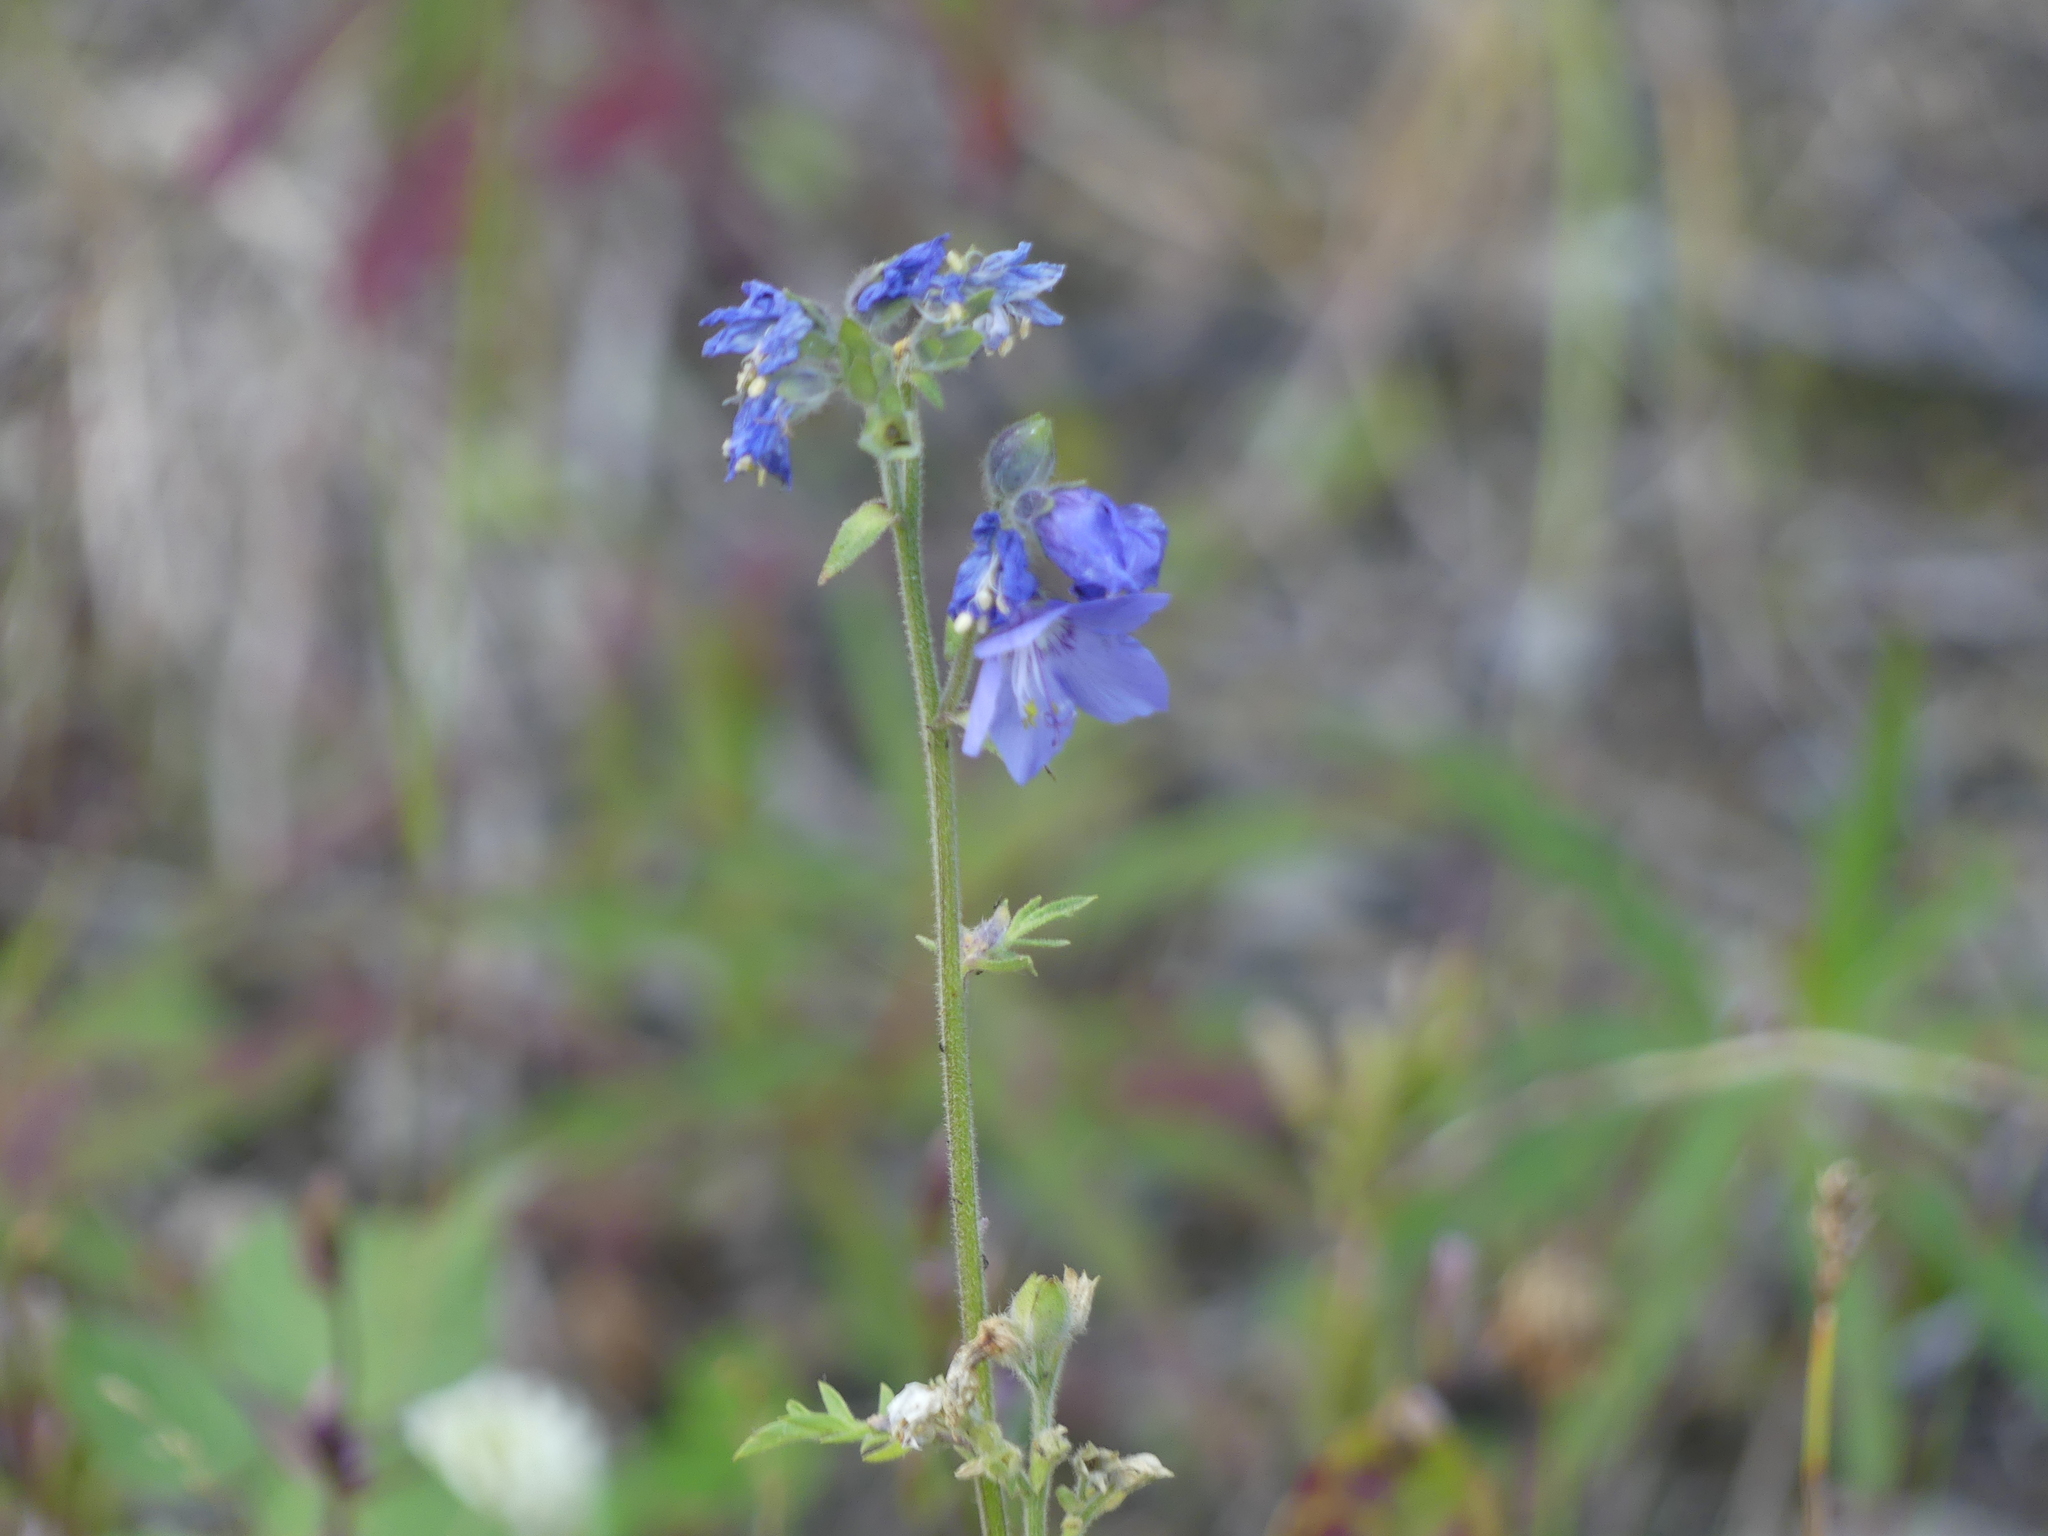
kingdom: Plantae
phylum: Tracheophyta
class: Magnoliopsida
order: Ericales
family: Polemoniaceae
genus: Polemonium
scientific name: Polemonium acutiflorum
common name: Tall jacob's-ladder
